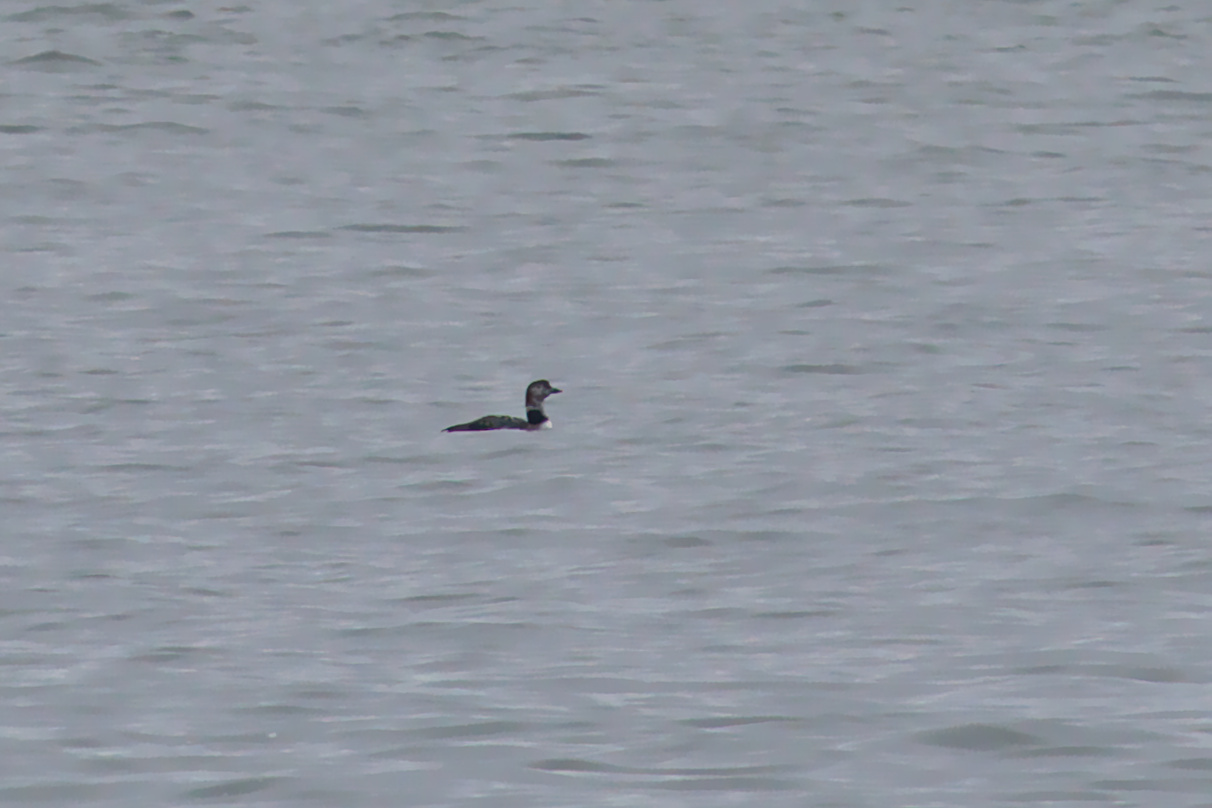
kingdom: Animalia
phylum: Chordata
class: Aves
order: Gaviiformes
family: Gaviidae
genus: Gavia
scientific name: Gavia immer
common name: Common loon
